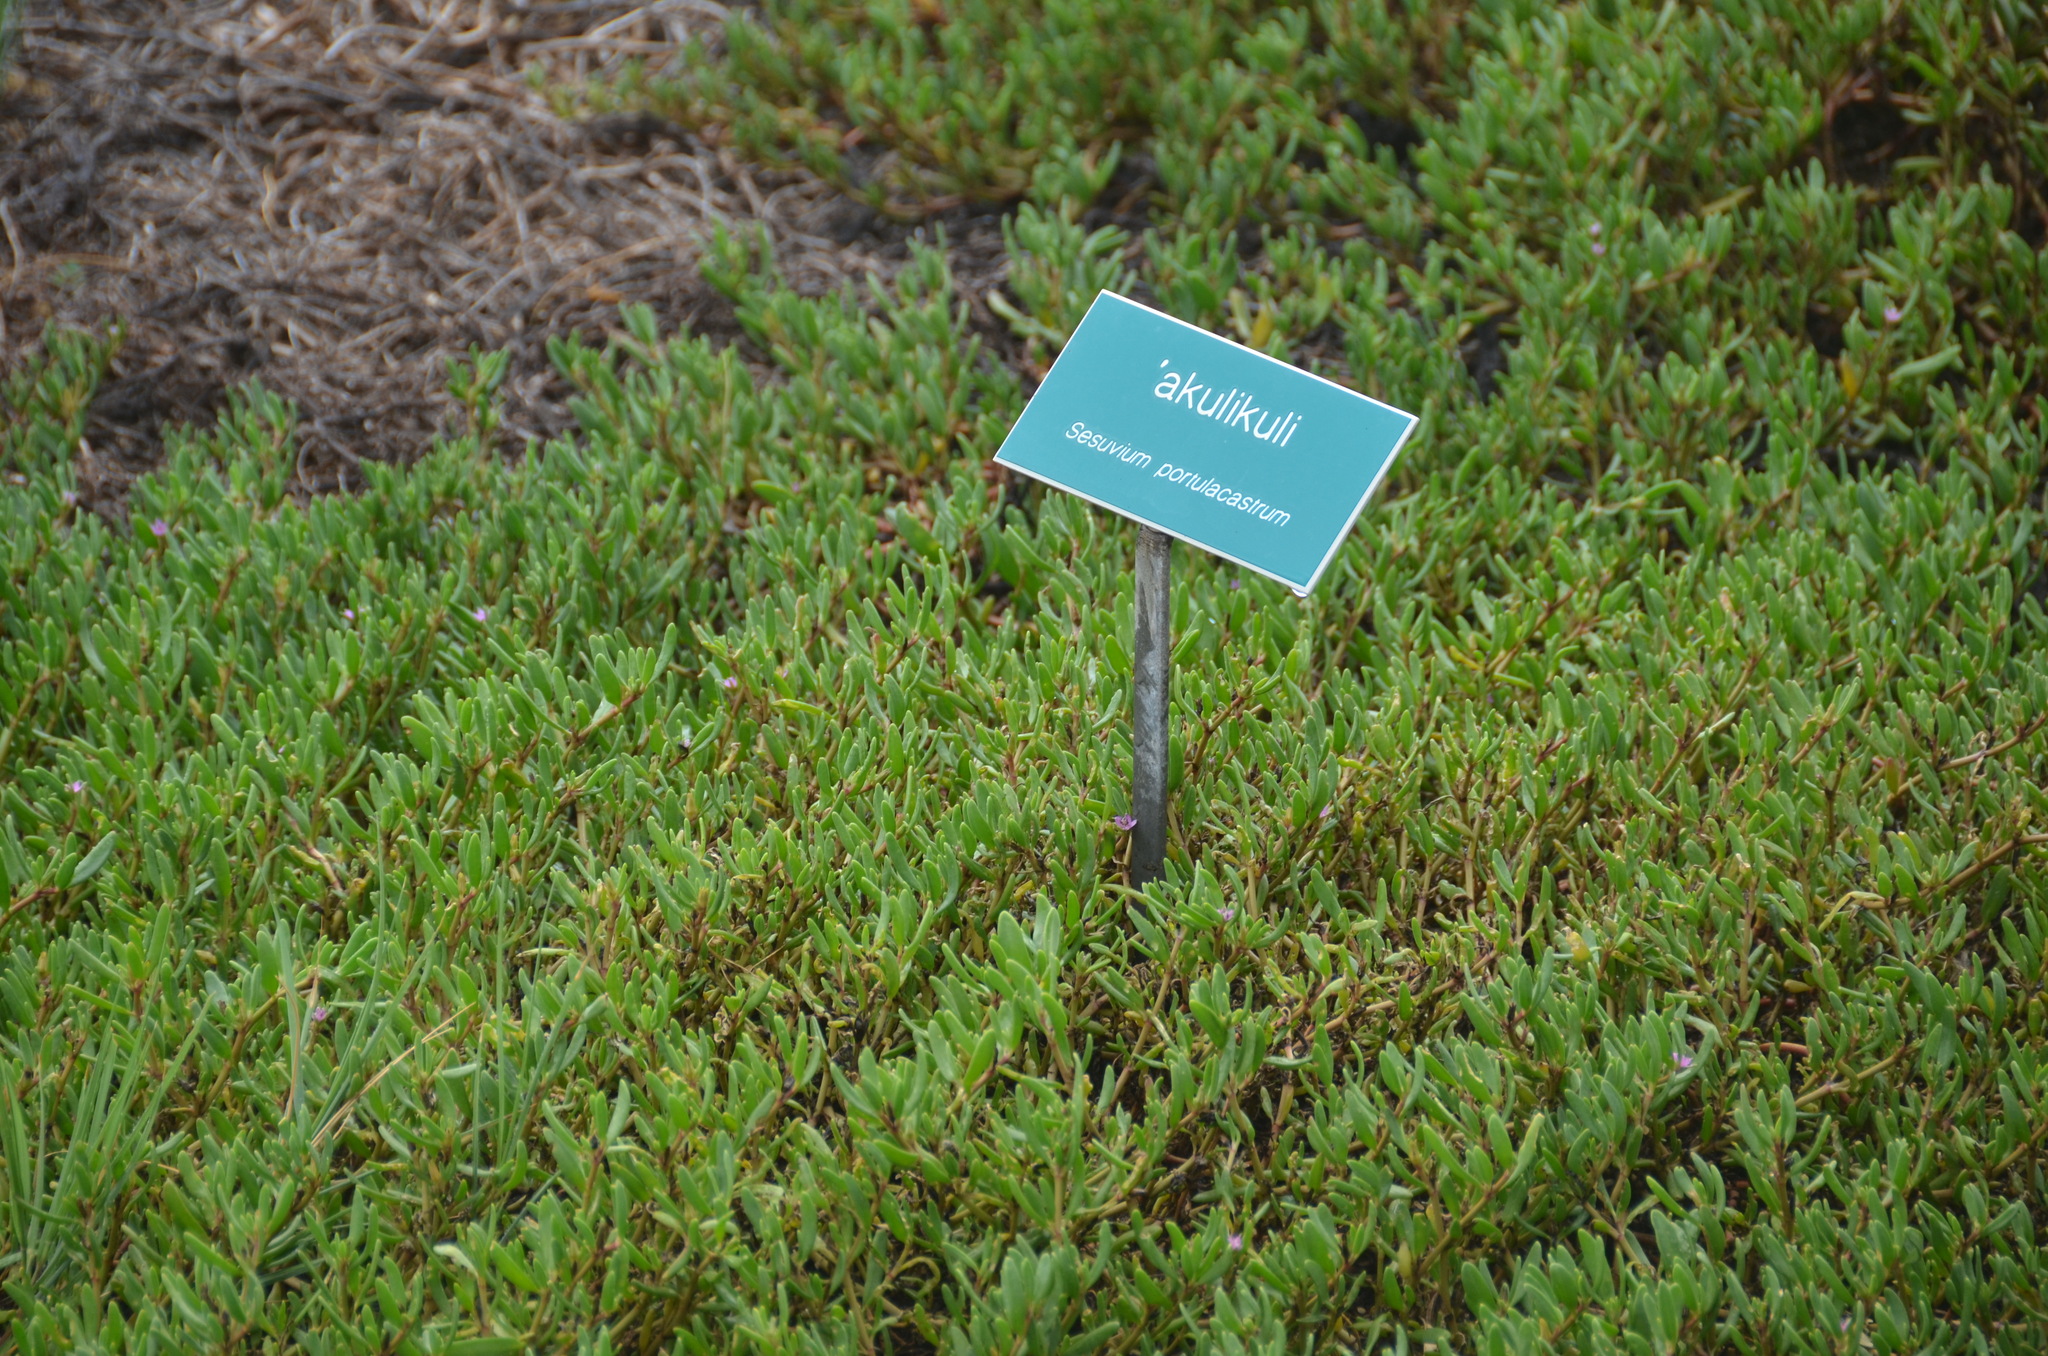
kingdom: Plantae
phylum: Tracheophyta
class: Magnoliopsida
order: Caryophyllales
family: Aizoaceae
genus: Sesuvium
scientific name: Sesuvium portulacastrum
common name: Sea-purslane
